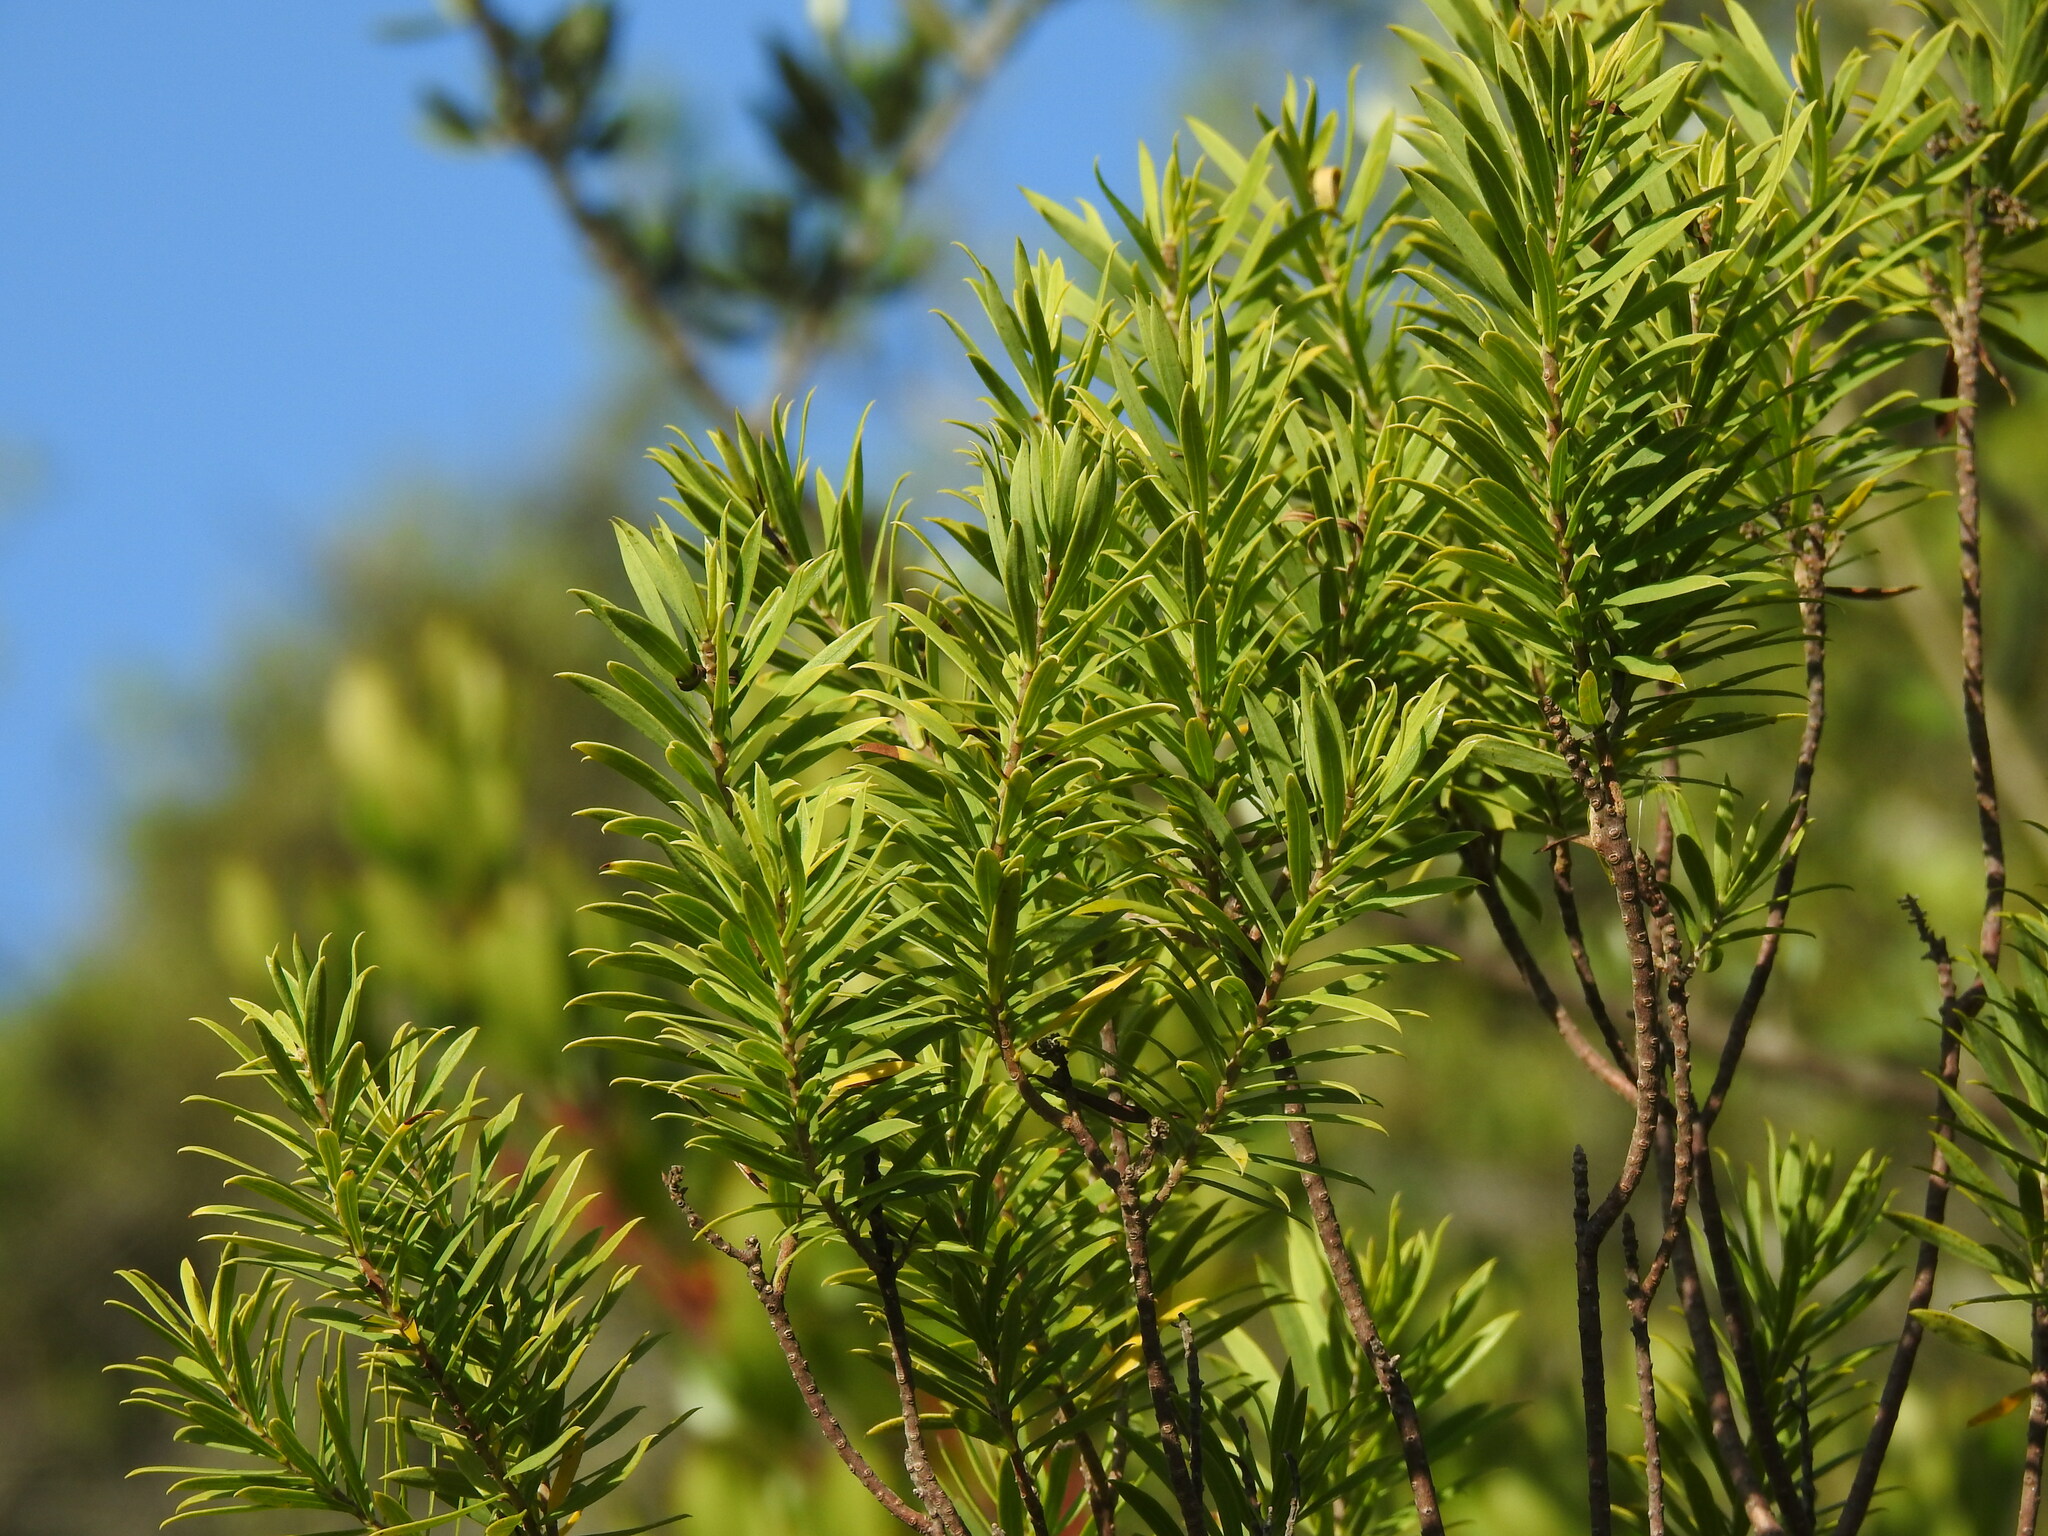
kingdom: Plantae
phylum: Tracheophyta
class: Magnoliopsida
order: Malvales
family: Thymelaeaceae
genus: Daphne
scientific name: Daphne gnidium
